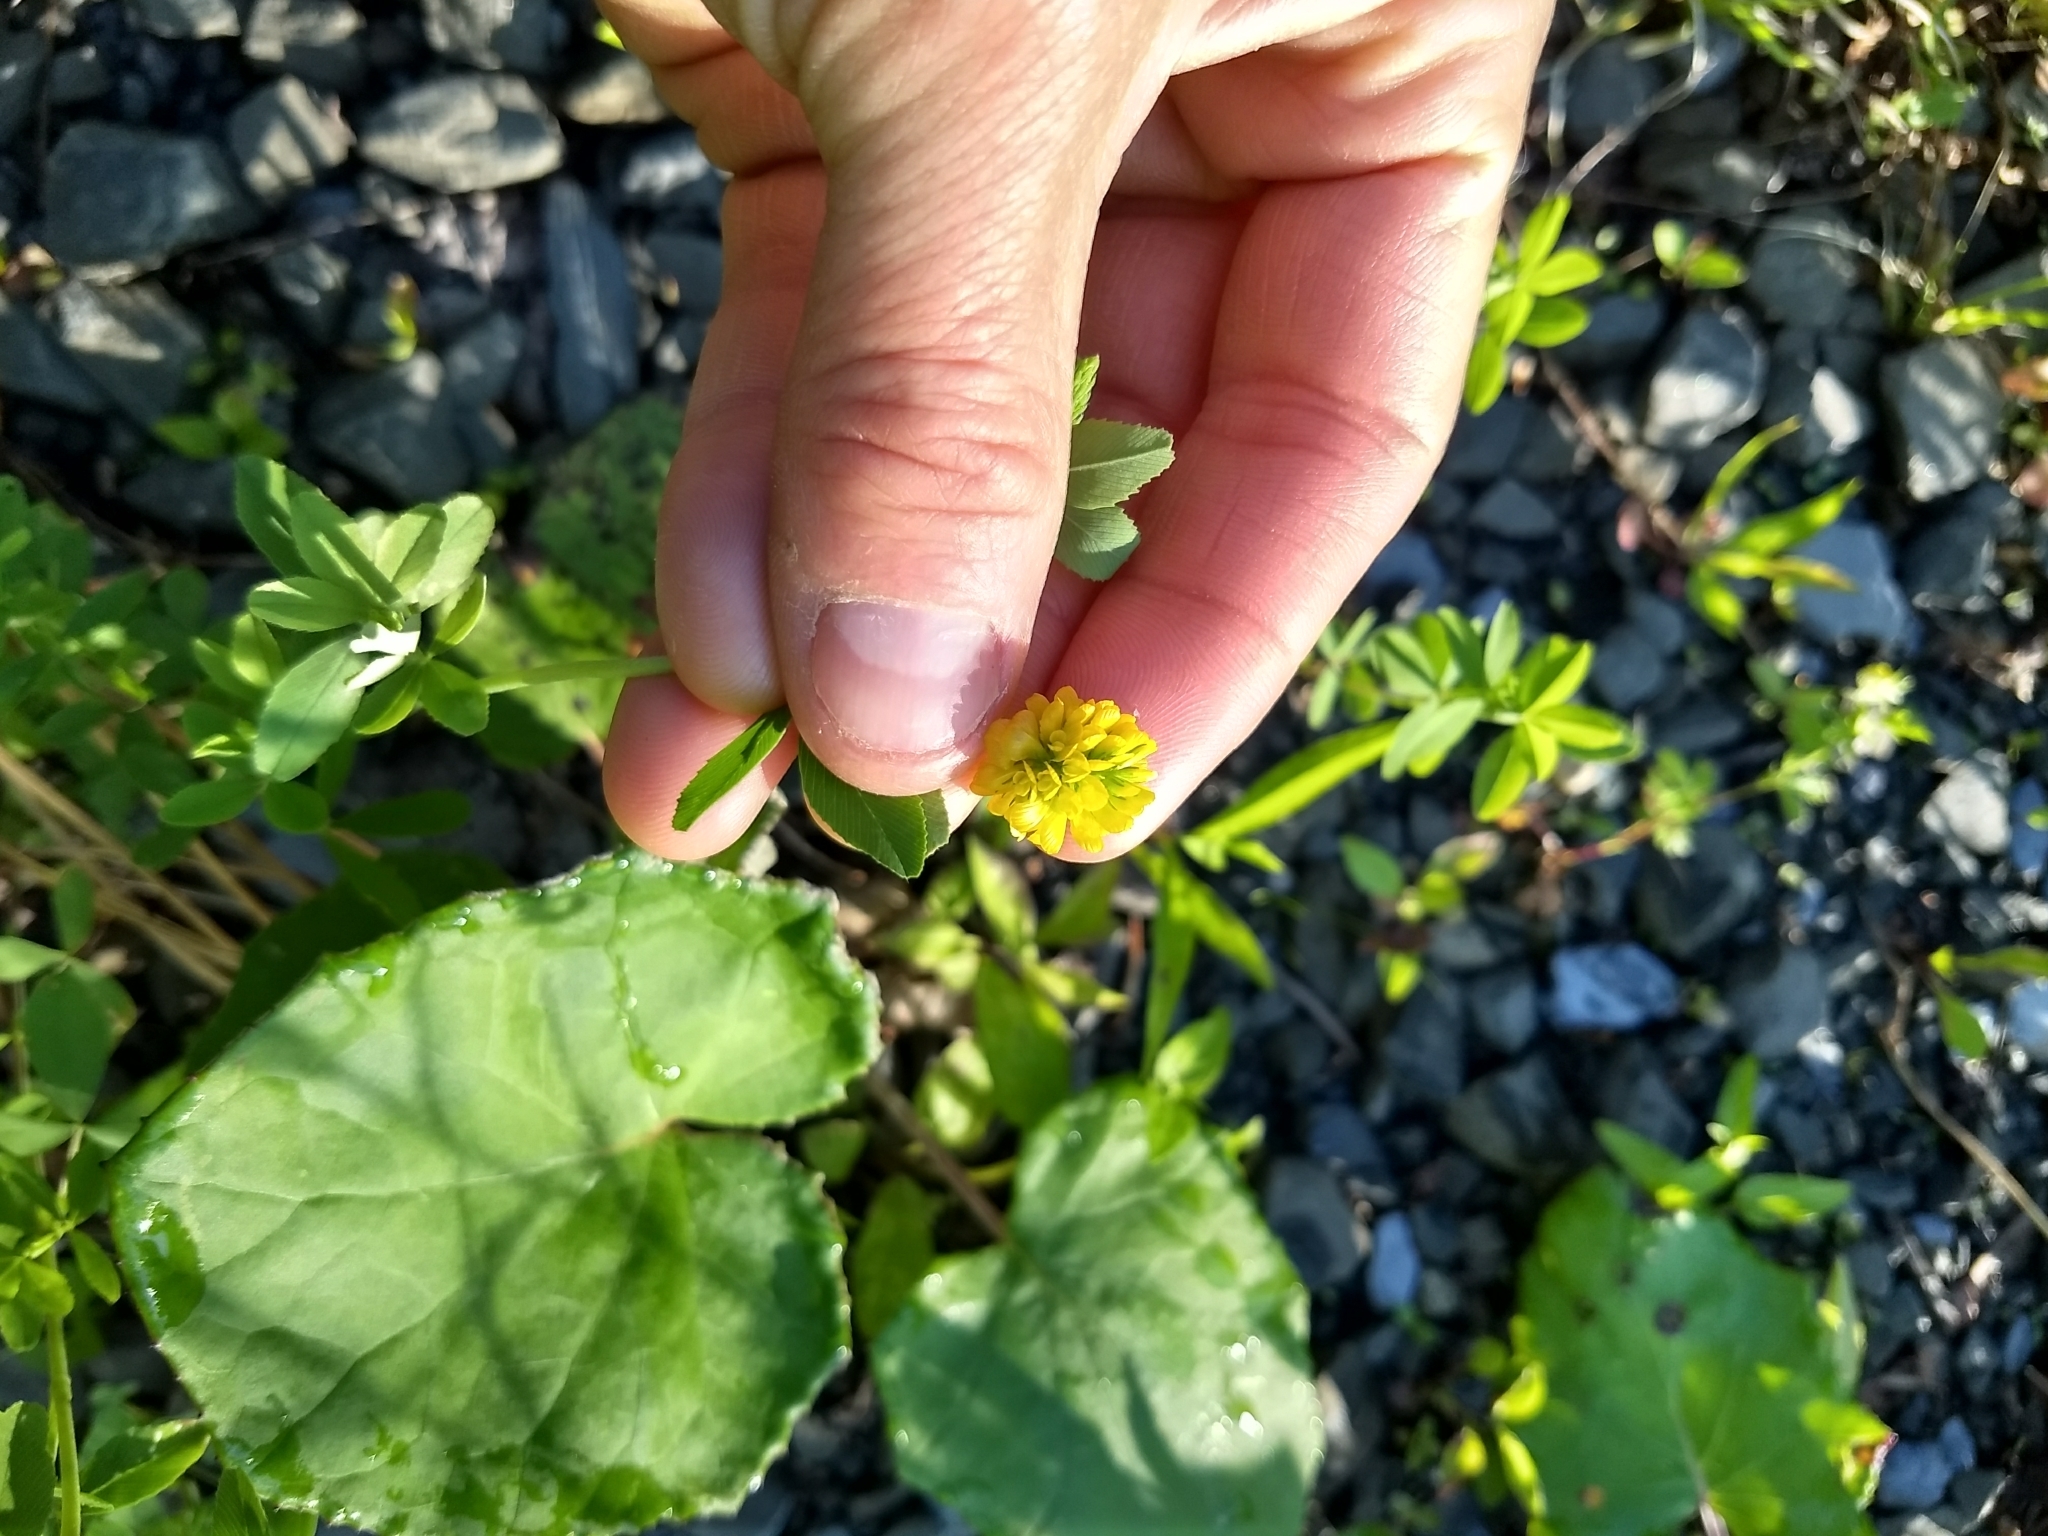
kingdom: Plantae
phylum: Tracheophyta
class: Magnoliopsida
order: Fabales
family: Fabaceae
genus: Trifolium
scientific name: Trifolium aureum
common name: Golden clover
